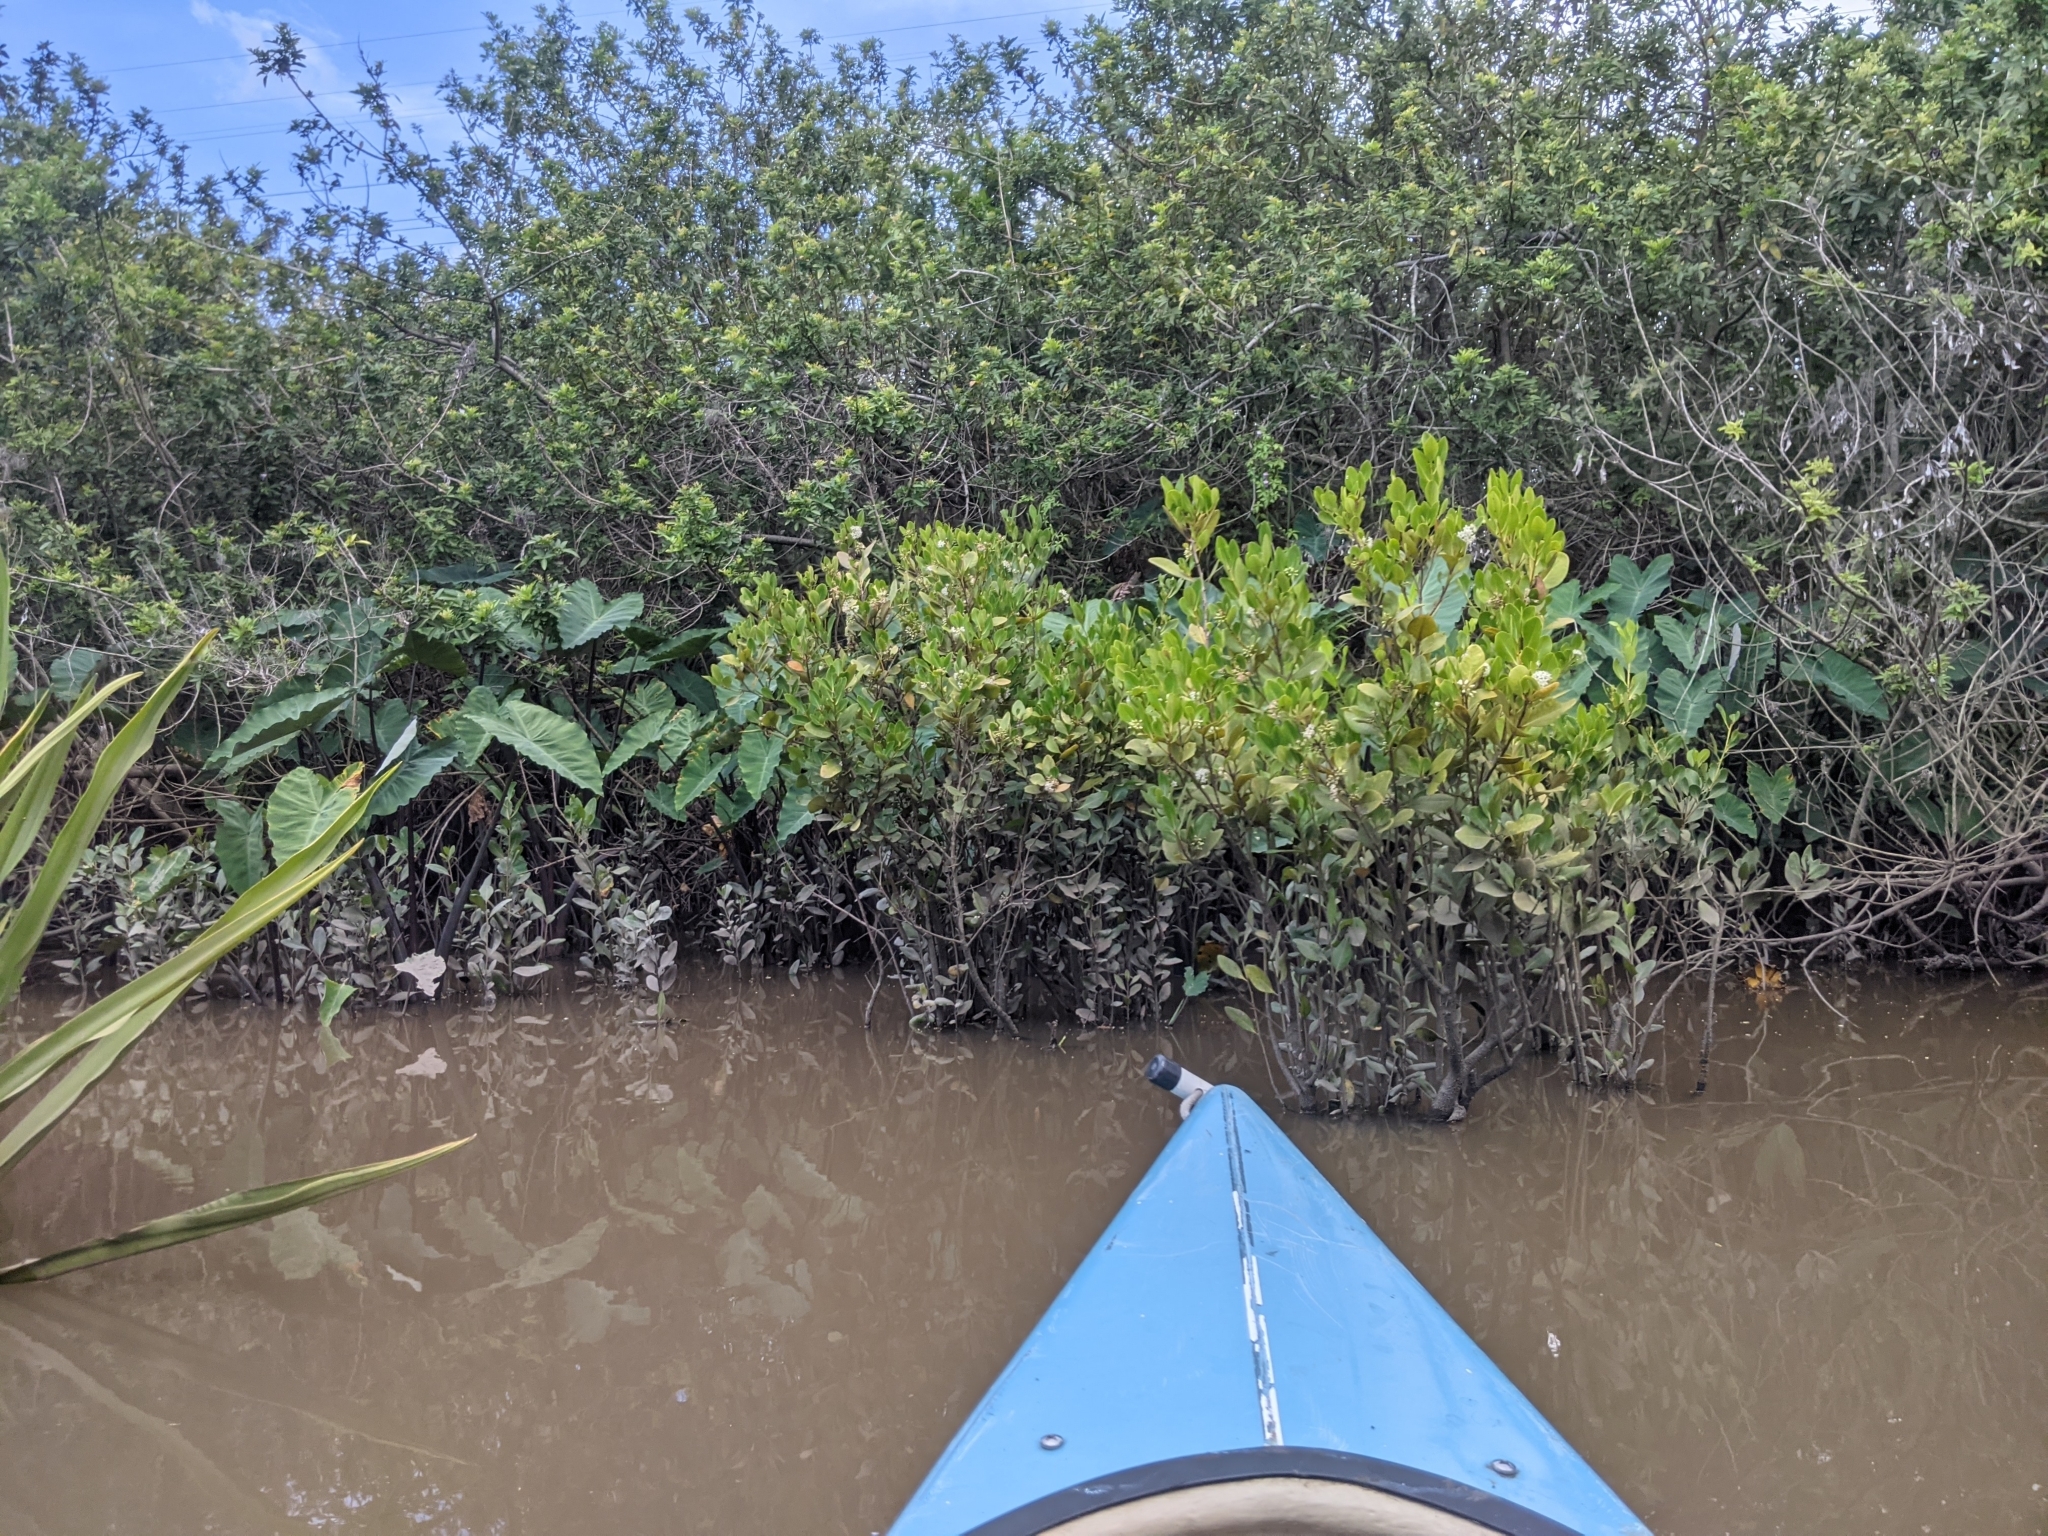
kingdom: Plantae
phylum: Tracheophyta
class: Liliopsida
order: Alismatales
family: Araceae
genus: Colocasia
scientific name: Colocasia esculenta
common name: Taro
